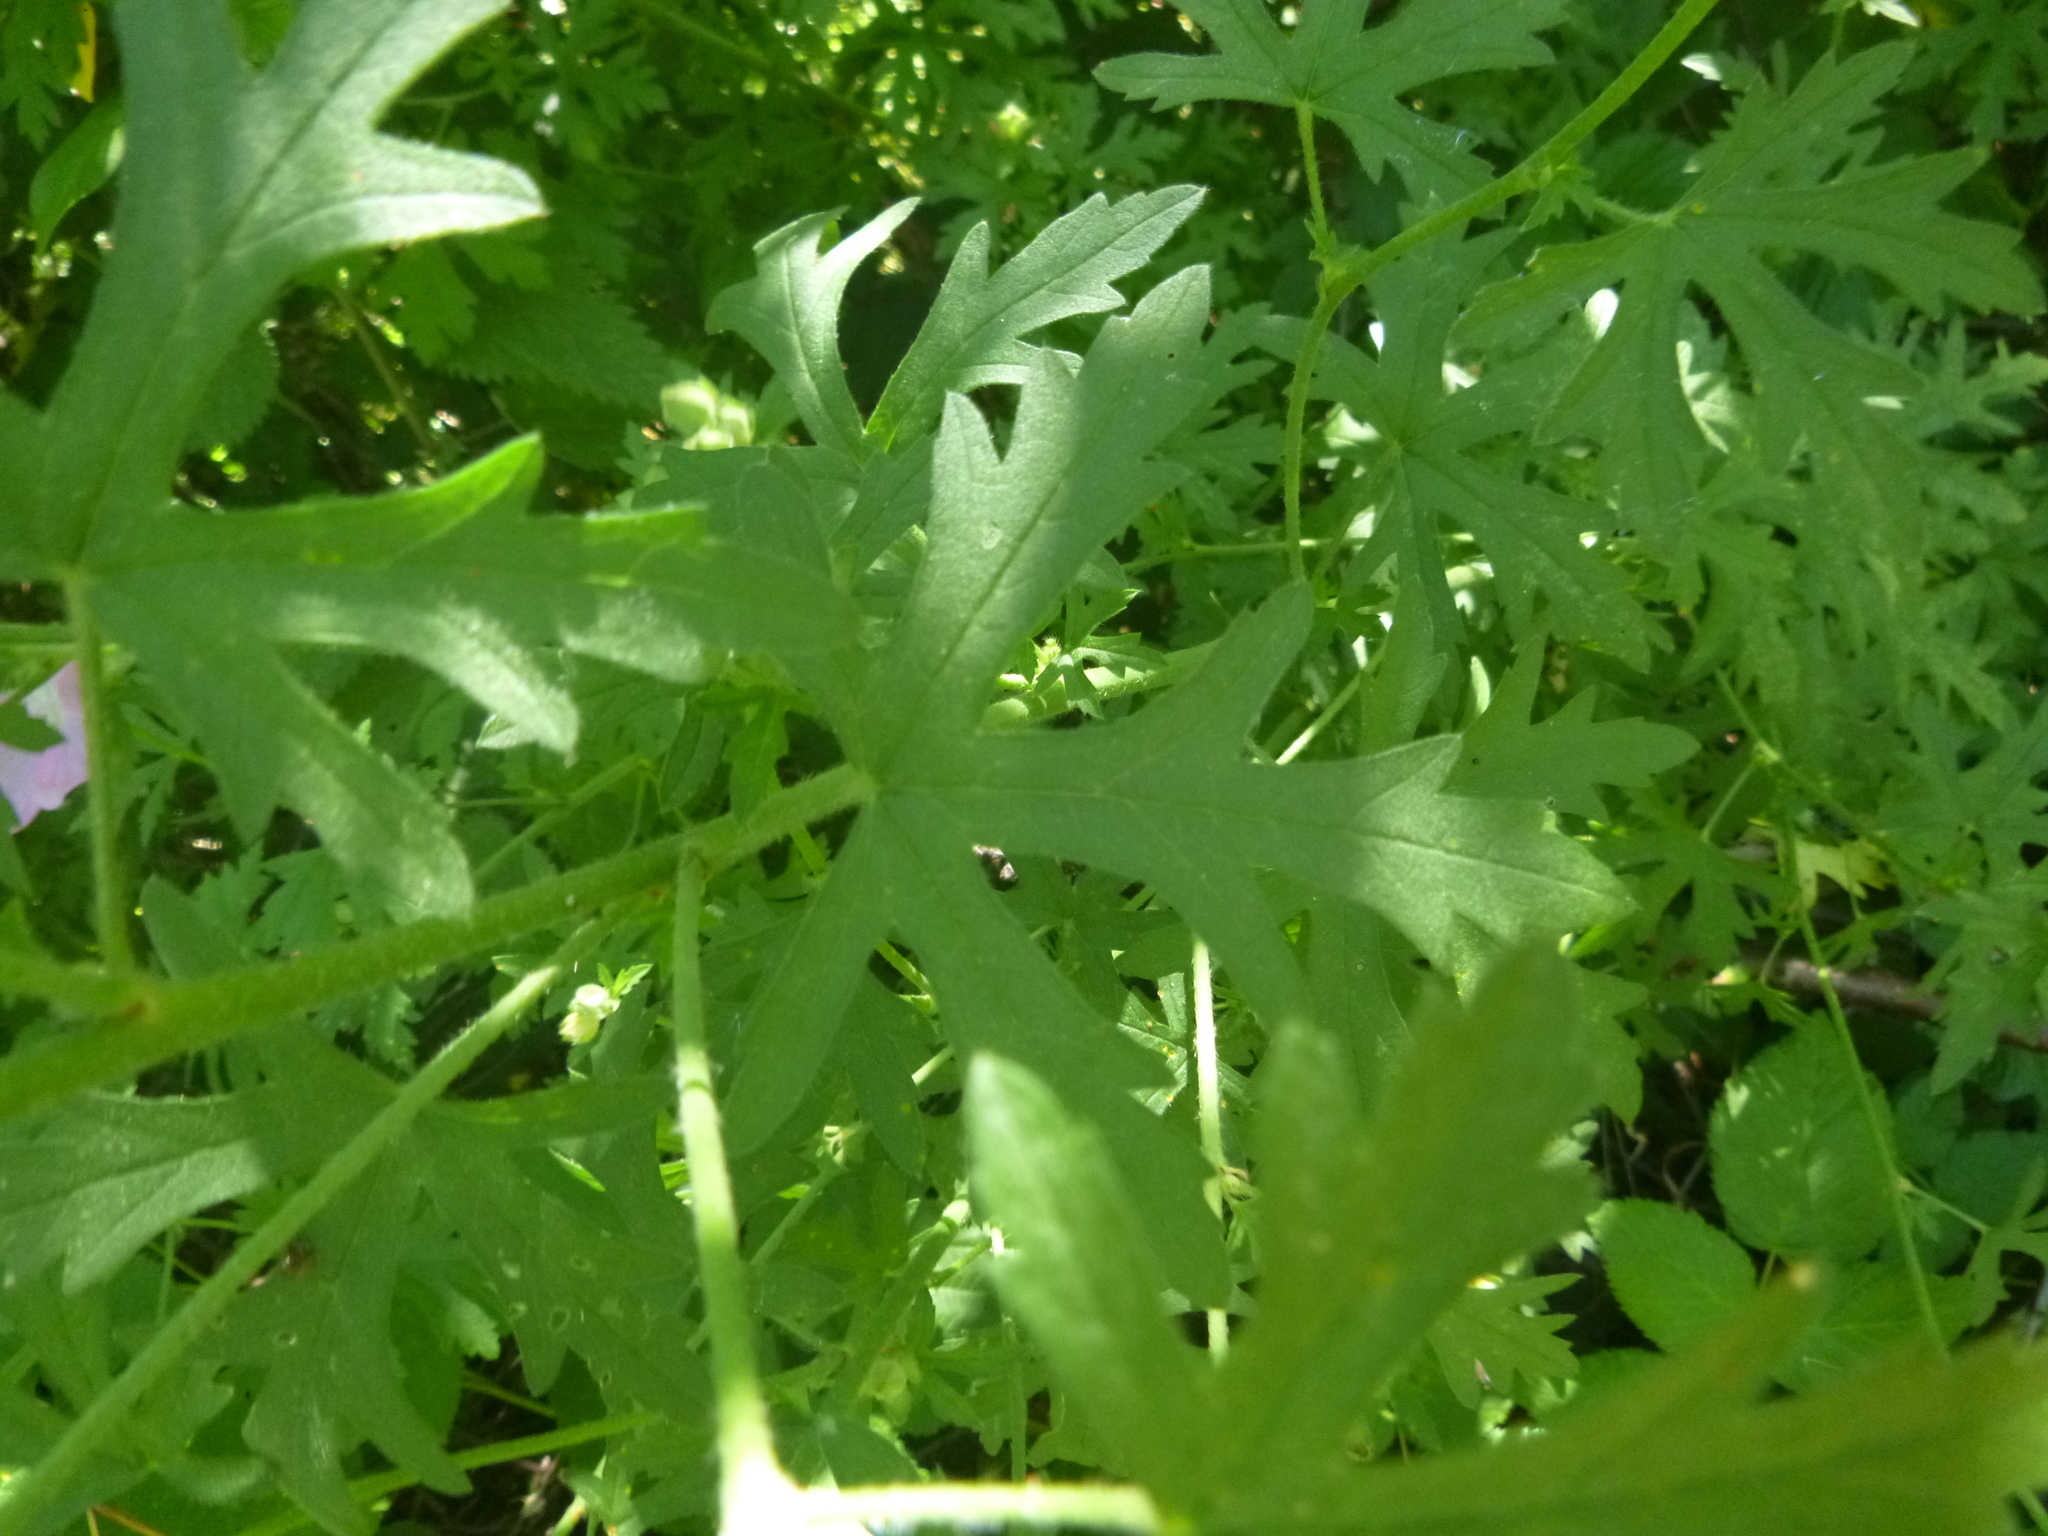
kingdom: Plantae
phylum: Tracheophyta
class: Magnoliopsida
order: Malvales
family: Malvaceae
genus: Malva
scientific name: Malva alcea
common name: Greater musk-mallow
